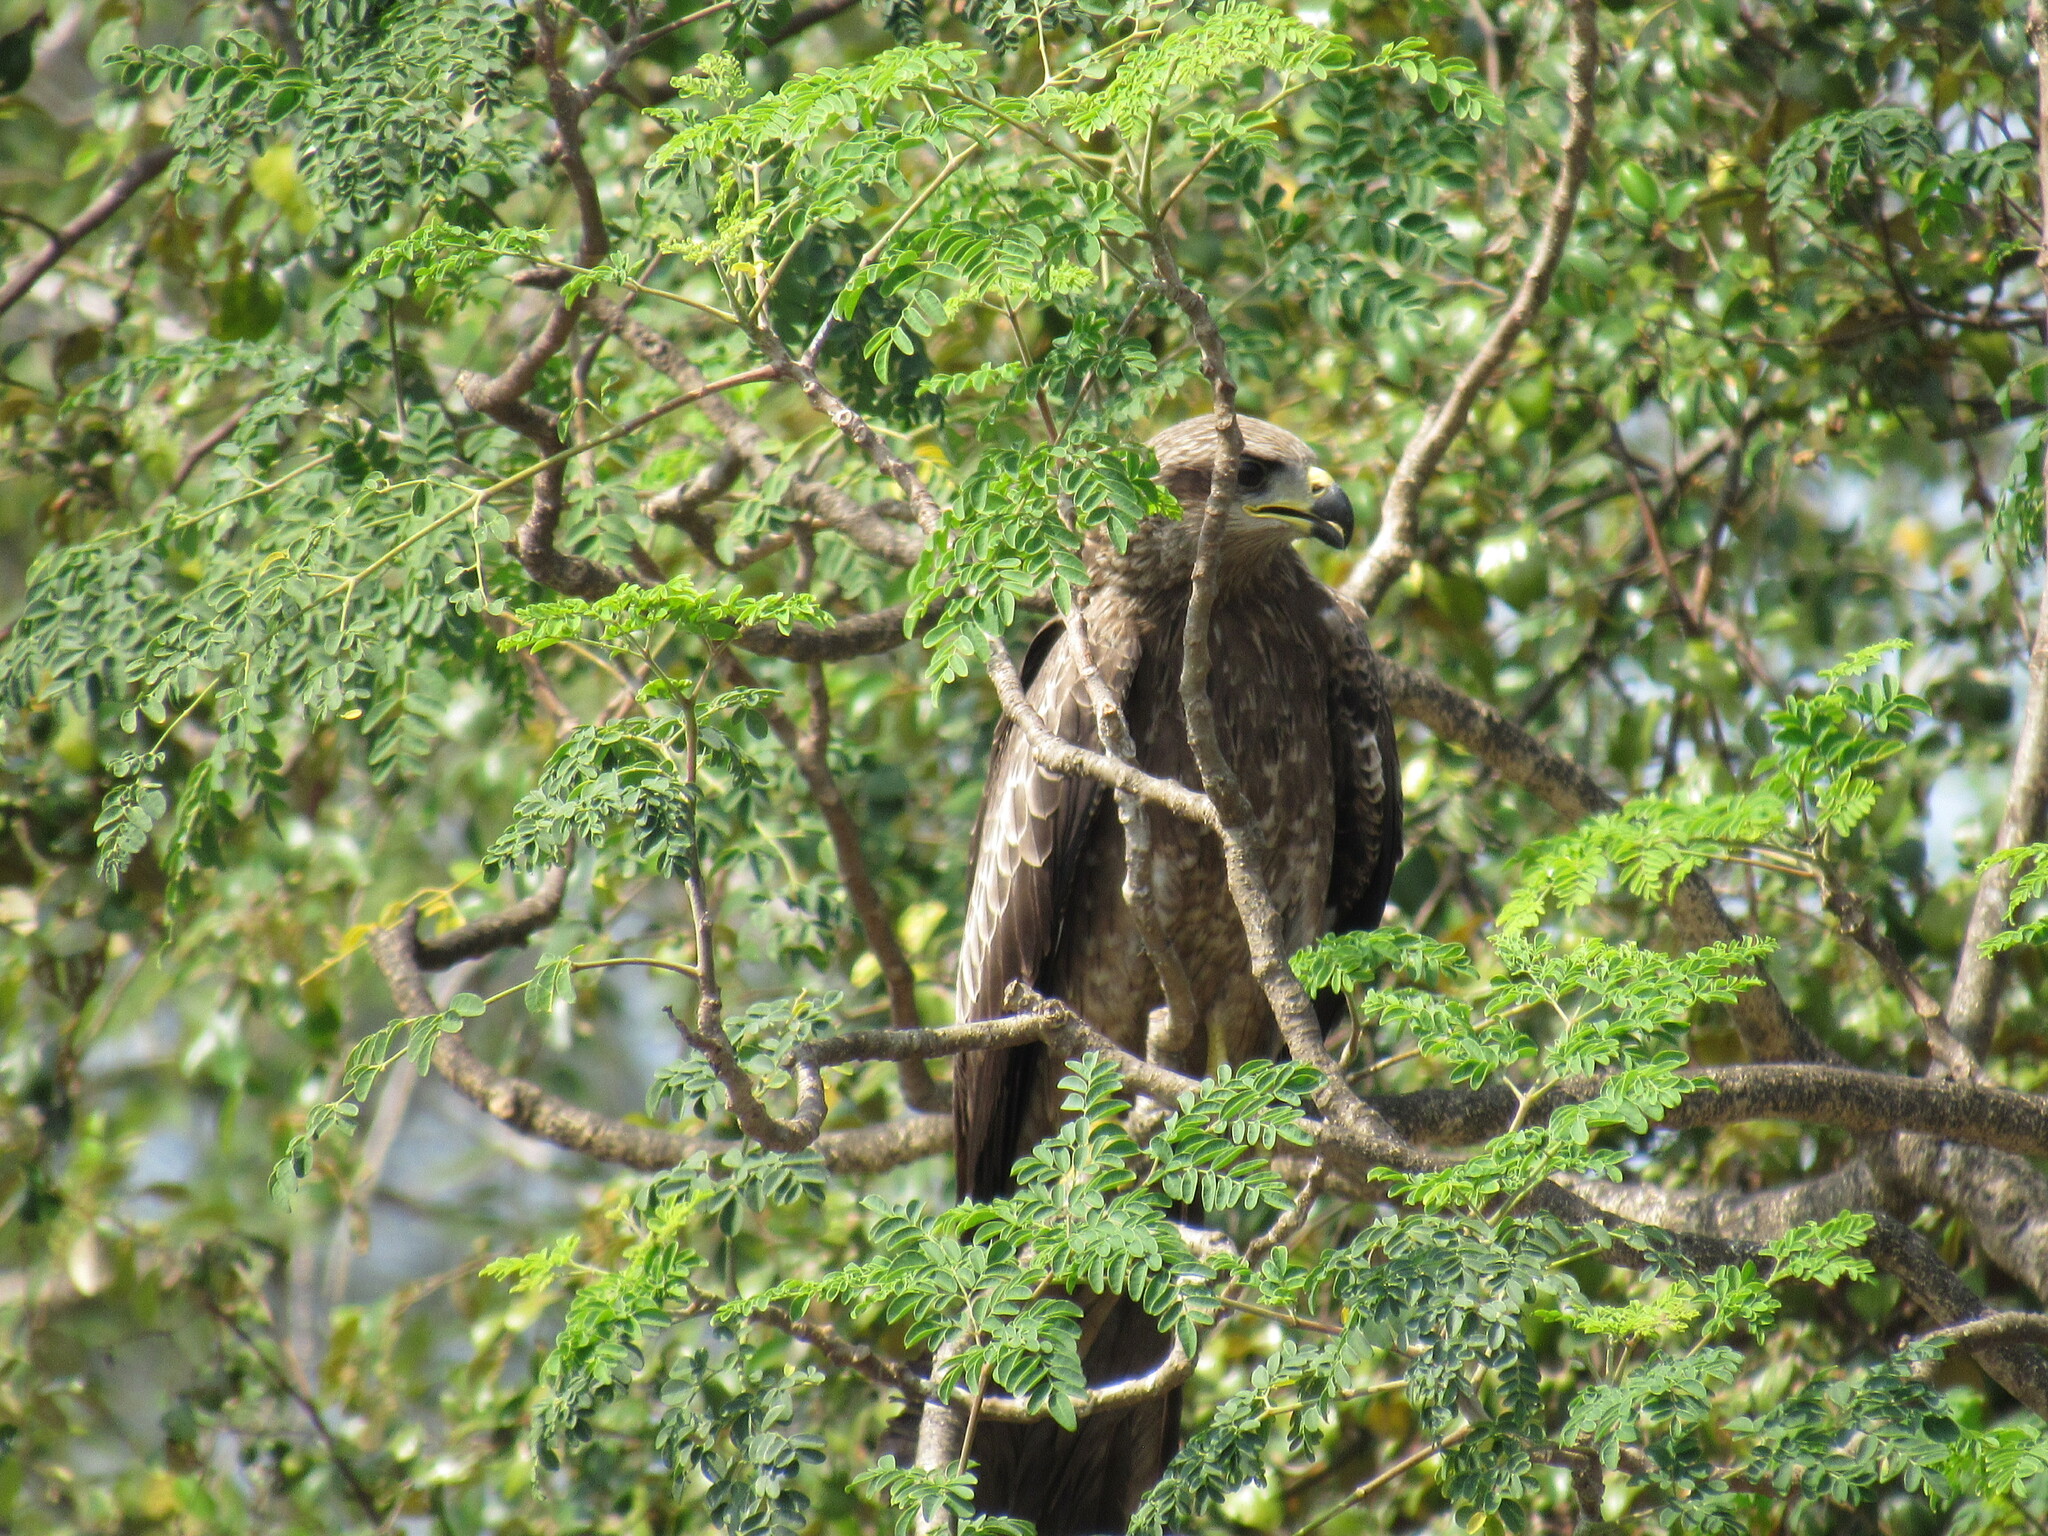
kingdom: Animalia
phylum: Chordata
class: Aves
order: Accipitriformes
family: Accipitridae
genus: Milvus
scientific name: Milvus migrans
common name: Black kite
